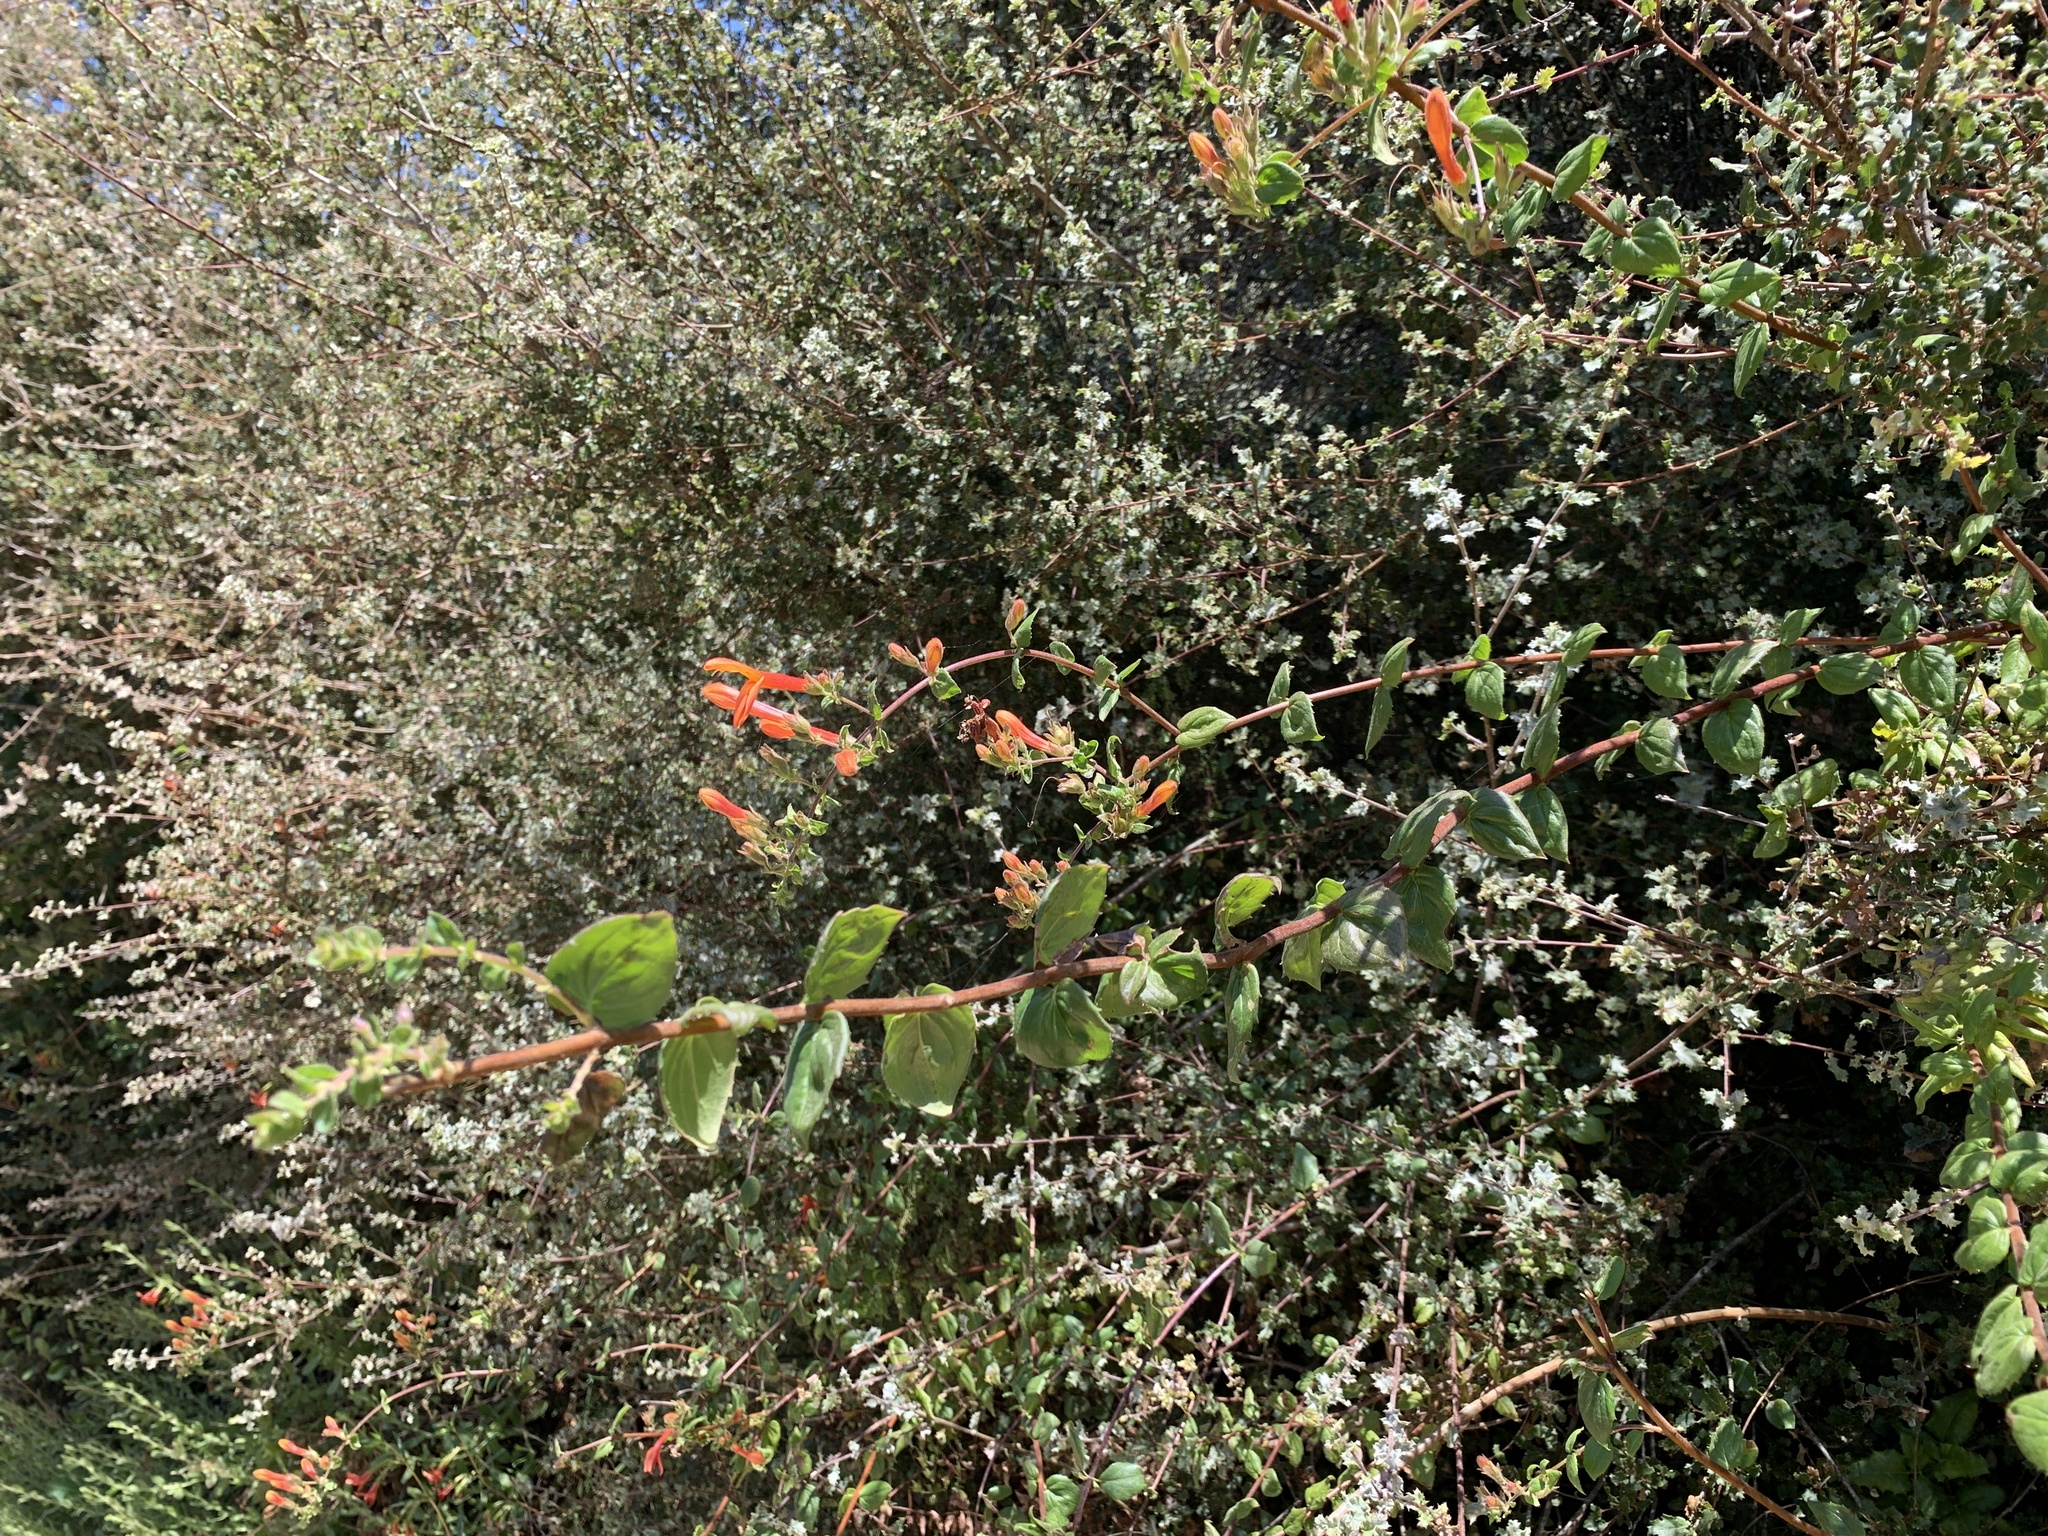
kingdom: Plantae
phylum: Tracheophyta
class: Magnoliopsida
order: Lamiales
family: Plantaginaceae
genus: Keckiella
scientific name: Keckiella cordifolia
